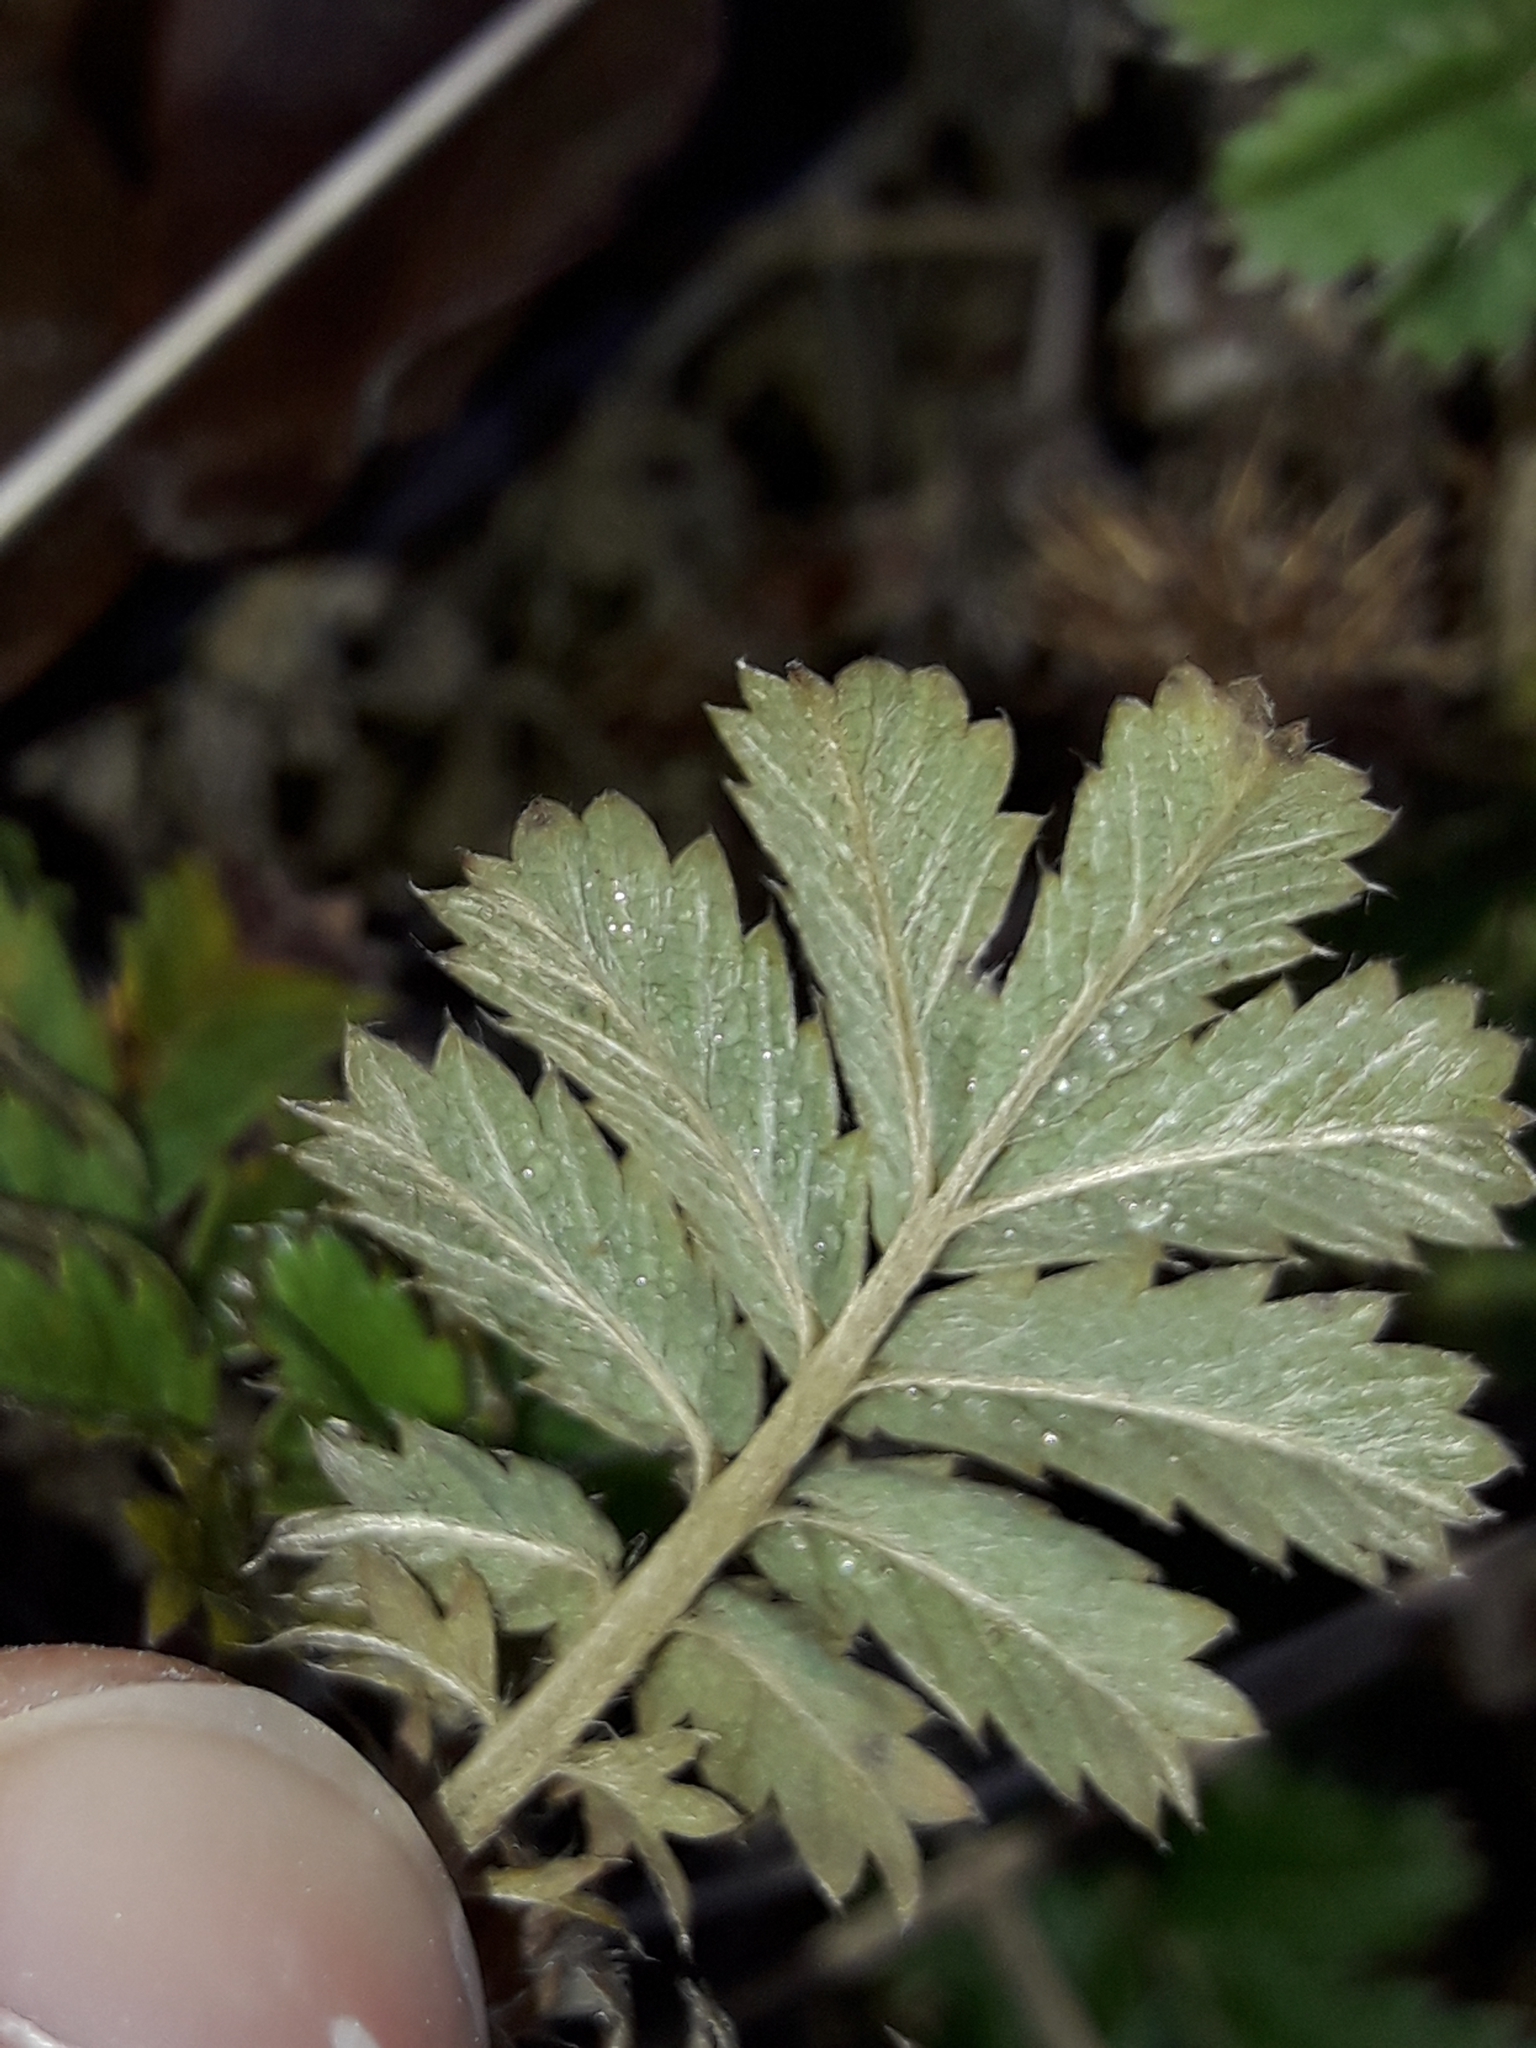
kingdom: Plantae
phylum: Tracheophyta
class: Magnoliopsida
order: Rosales
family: Rosaceae
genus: Acaena
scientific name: Acaena anserinifolia
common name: Bronze pirri-pirri-bur
